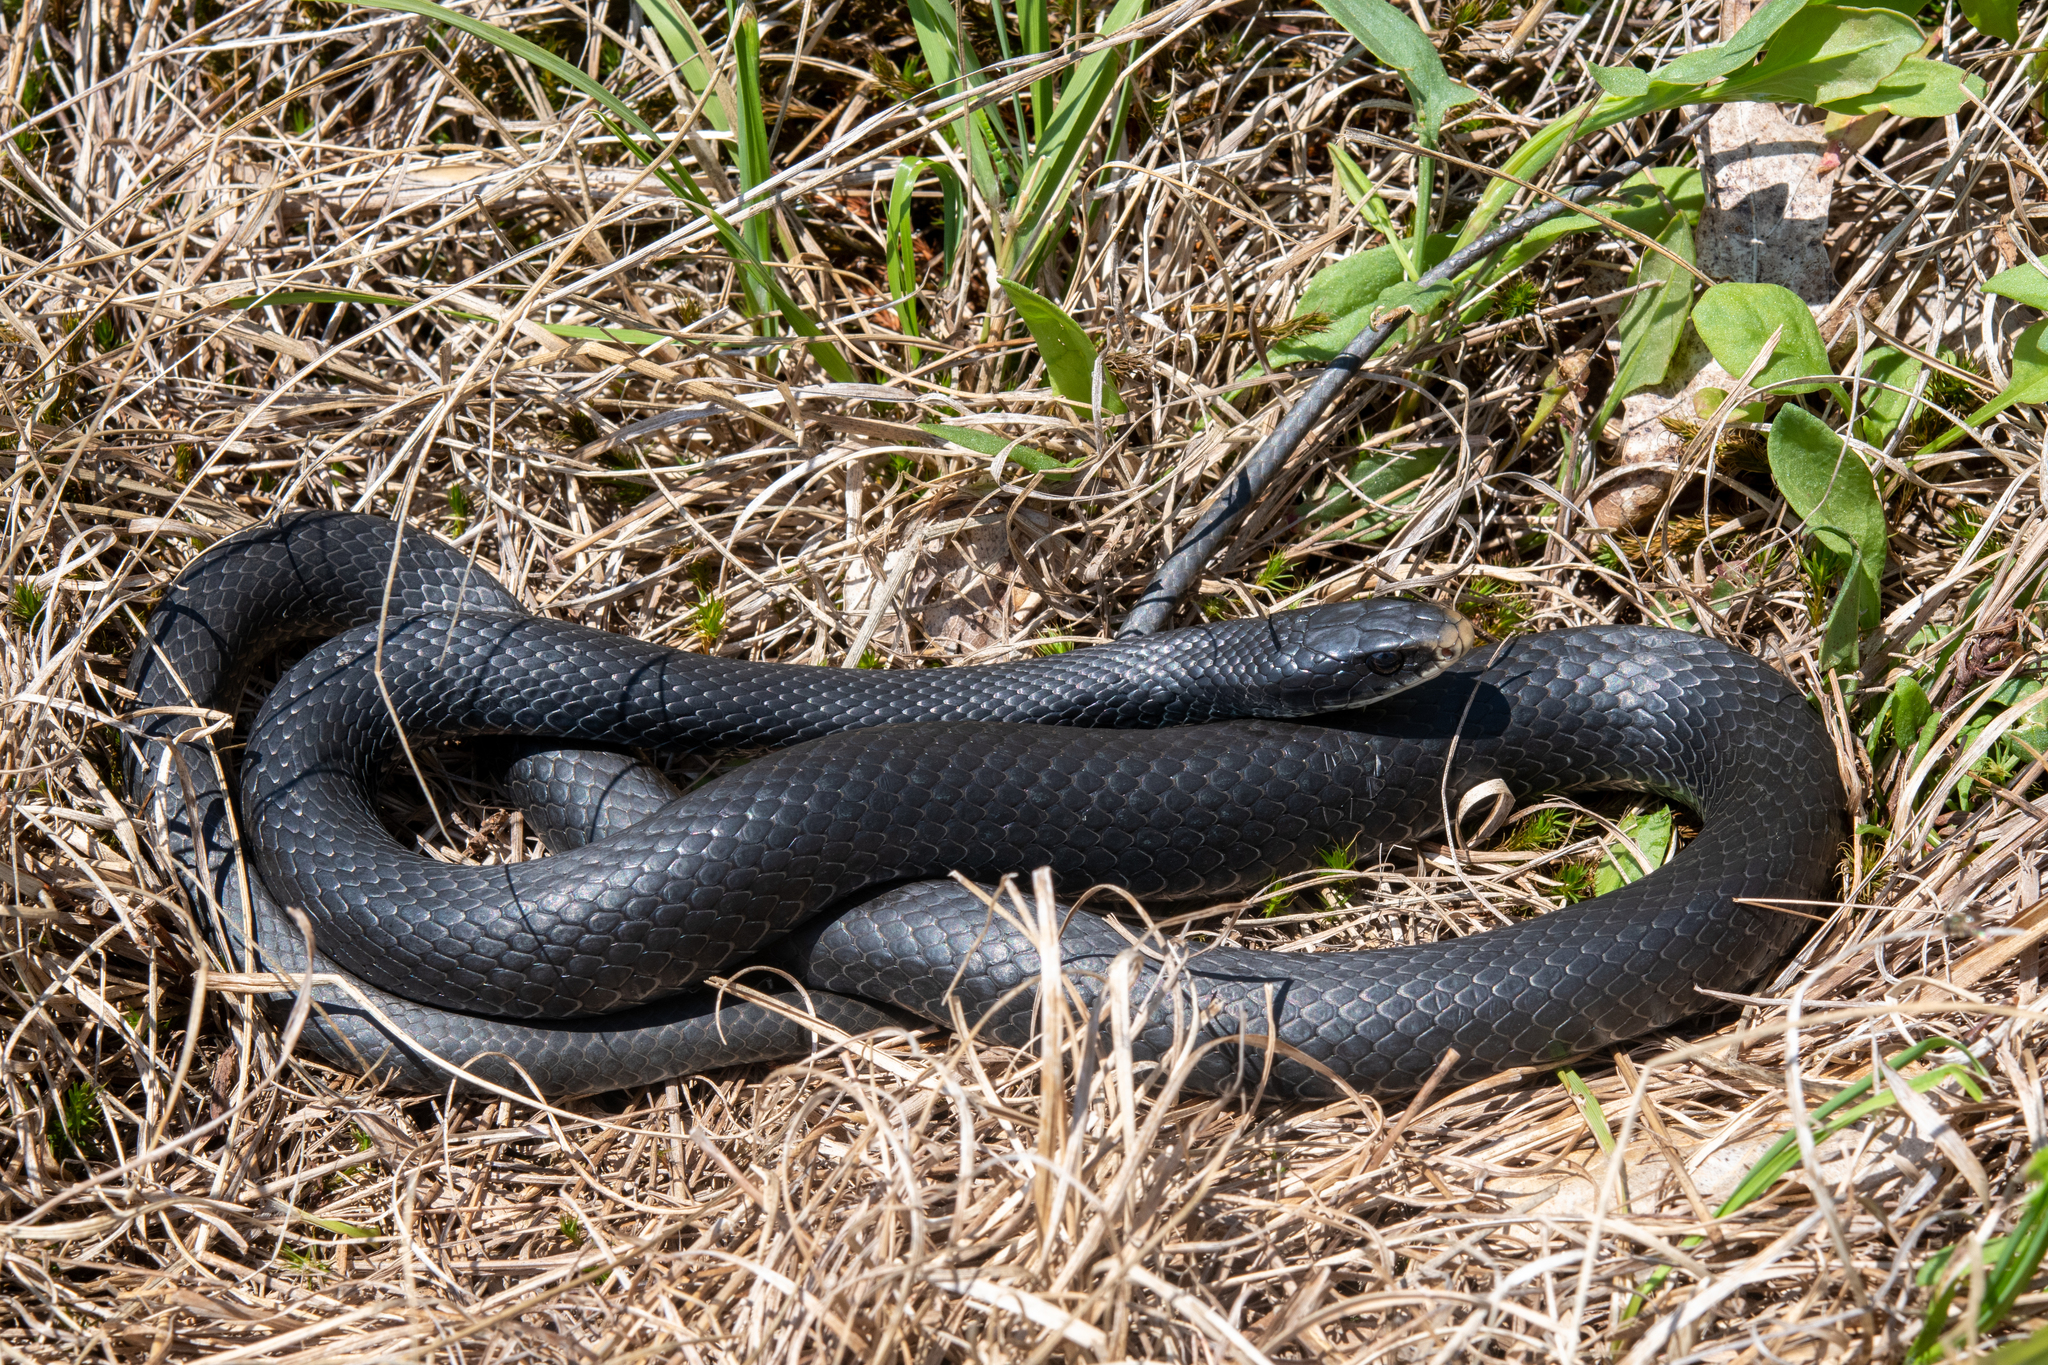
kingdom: Animalia
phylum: Chordata
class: Squamata
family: Colubridae
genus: Coluber
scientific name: Coluber constrictor
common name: Eastern racer
